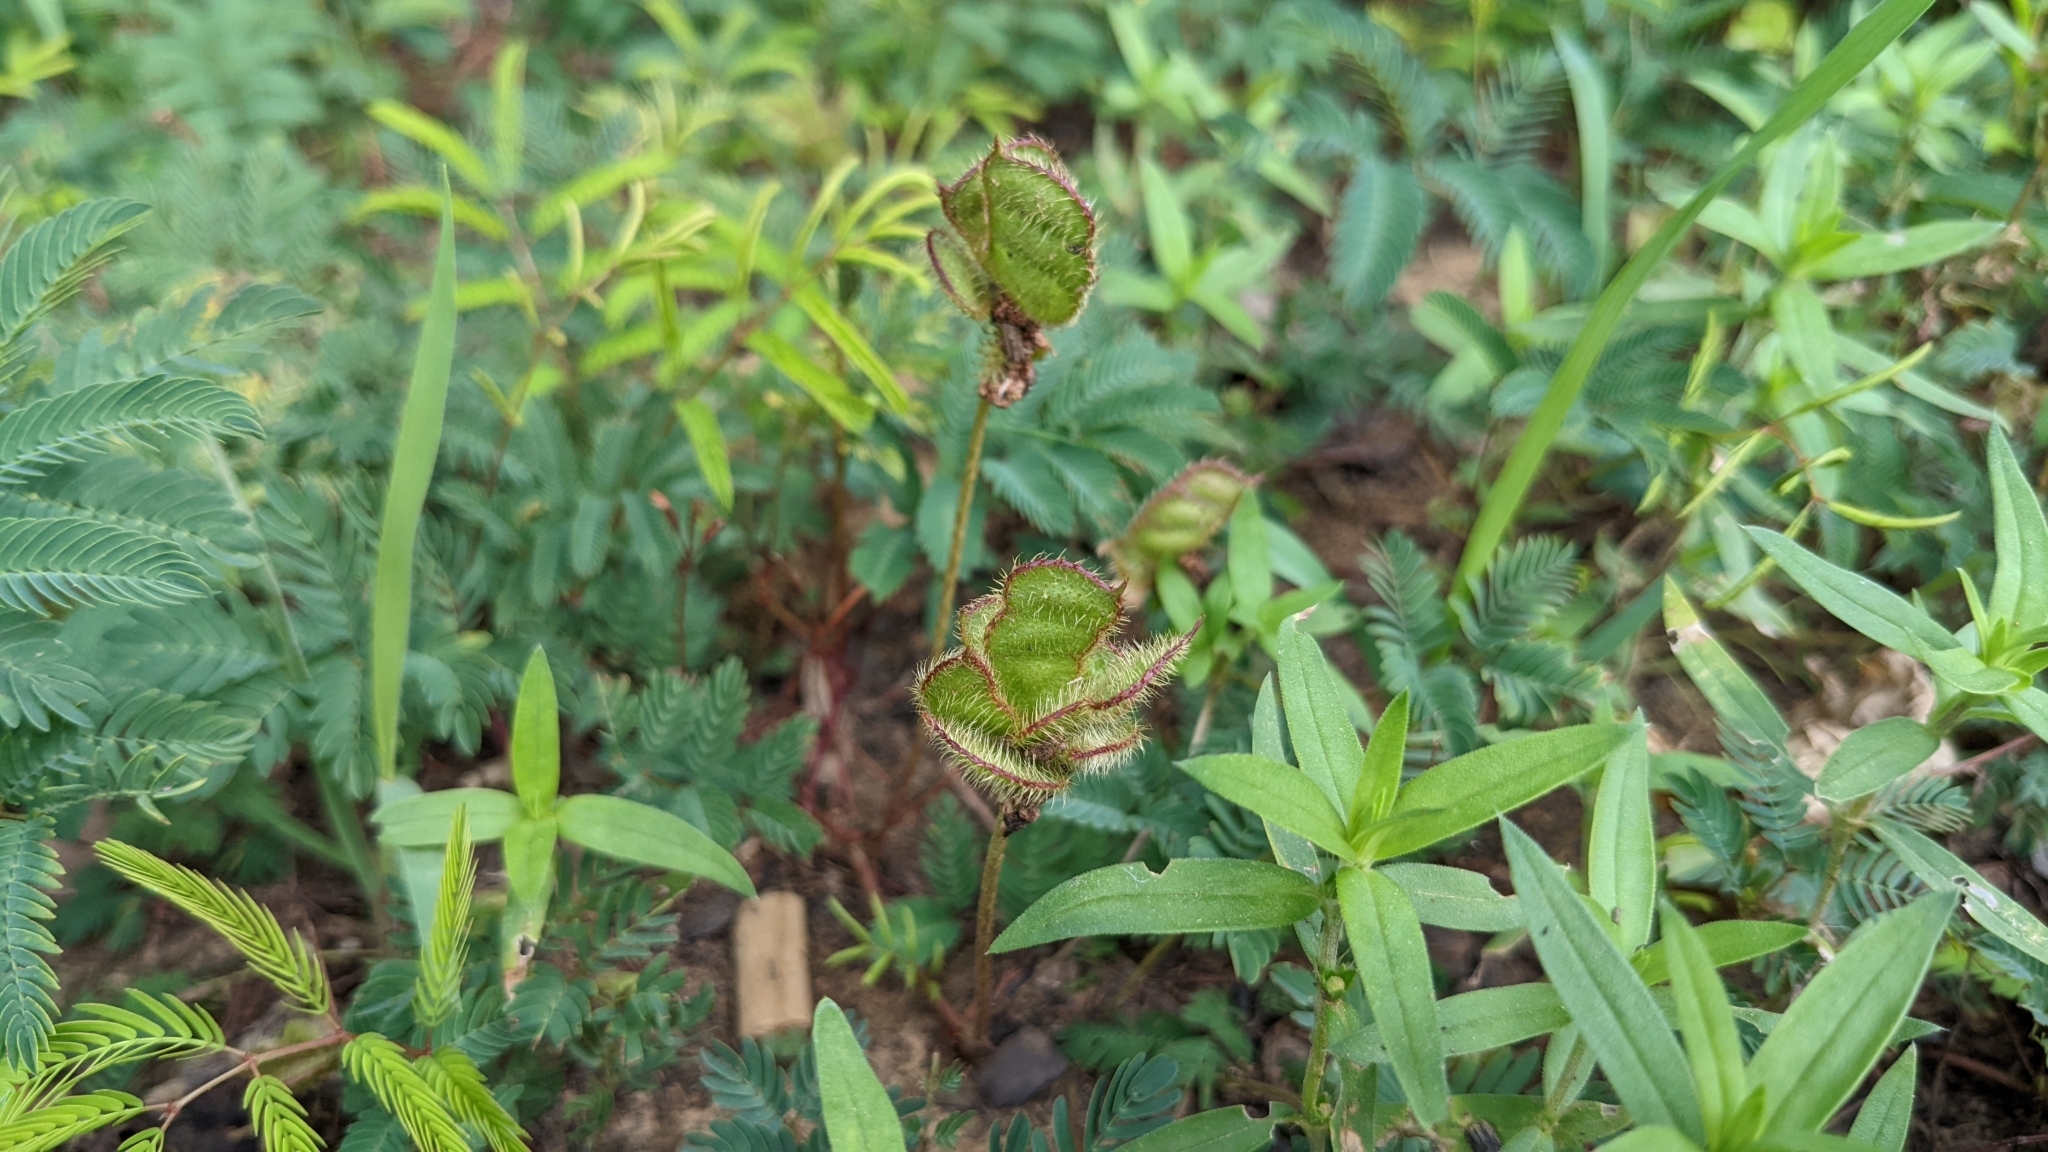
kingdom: Plantae
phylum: Tracheophyta
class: Magnoliopsida
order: Fabales
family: Fabaceae
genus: Mimosa
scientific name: Mimosa strigillosa
